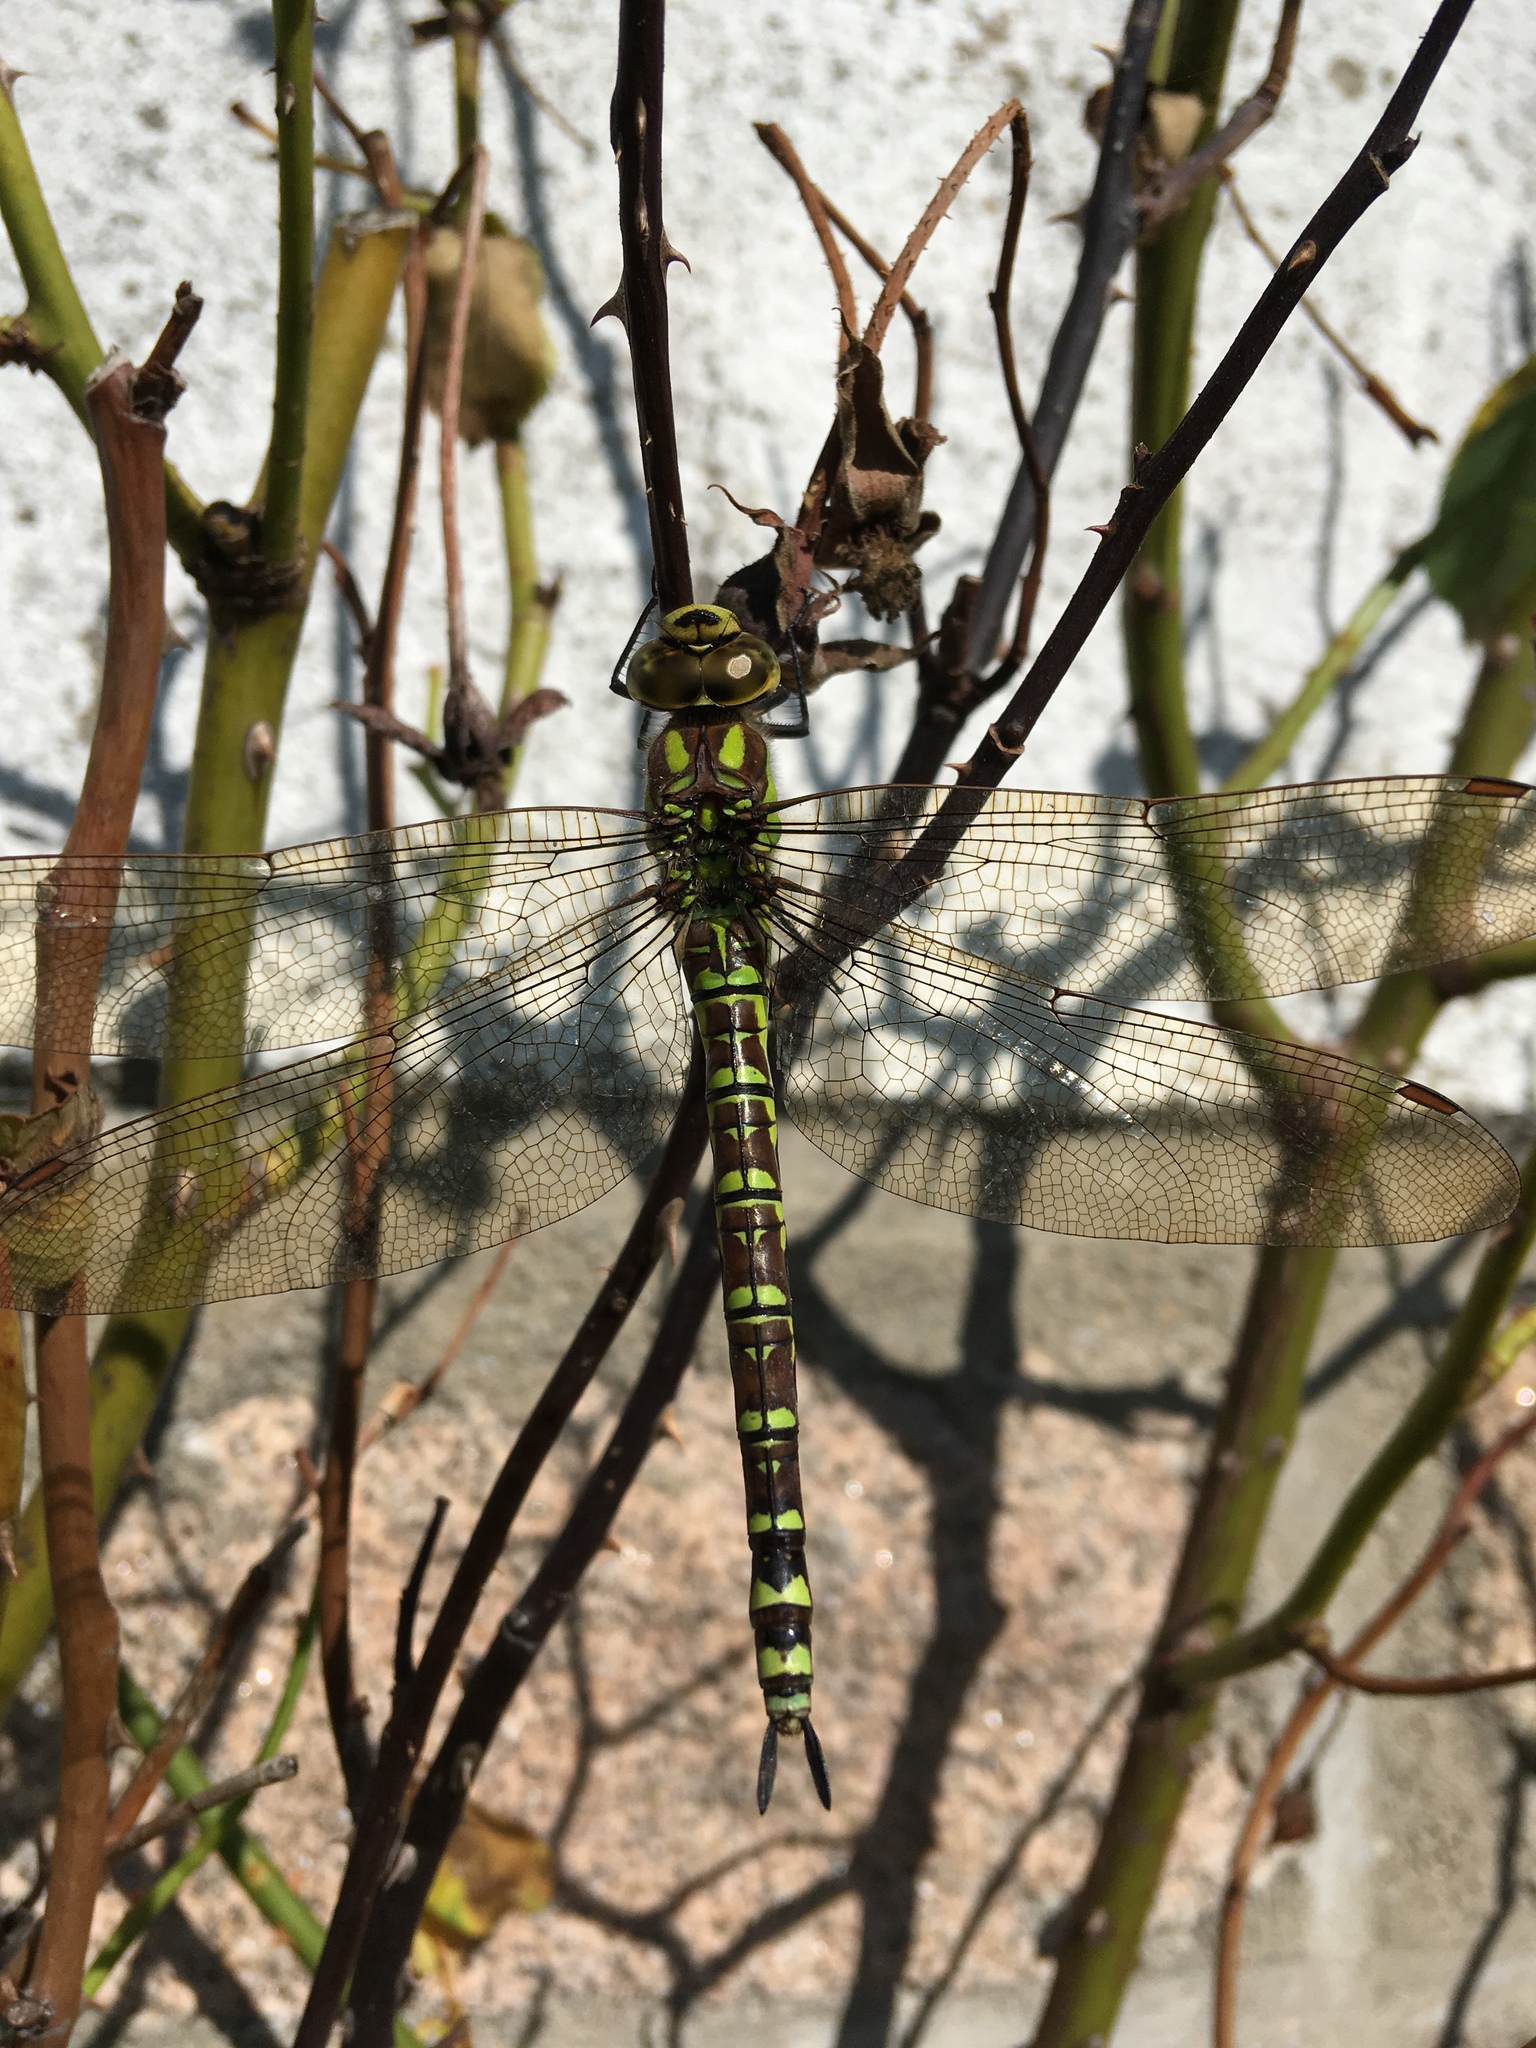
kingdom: Animalia
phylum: Arthropoda
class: Insecta
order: Odonata
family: Aeshnidae
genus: Aeshna
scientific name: Aeshna cyanea
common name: Southern hawker
